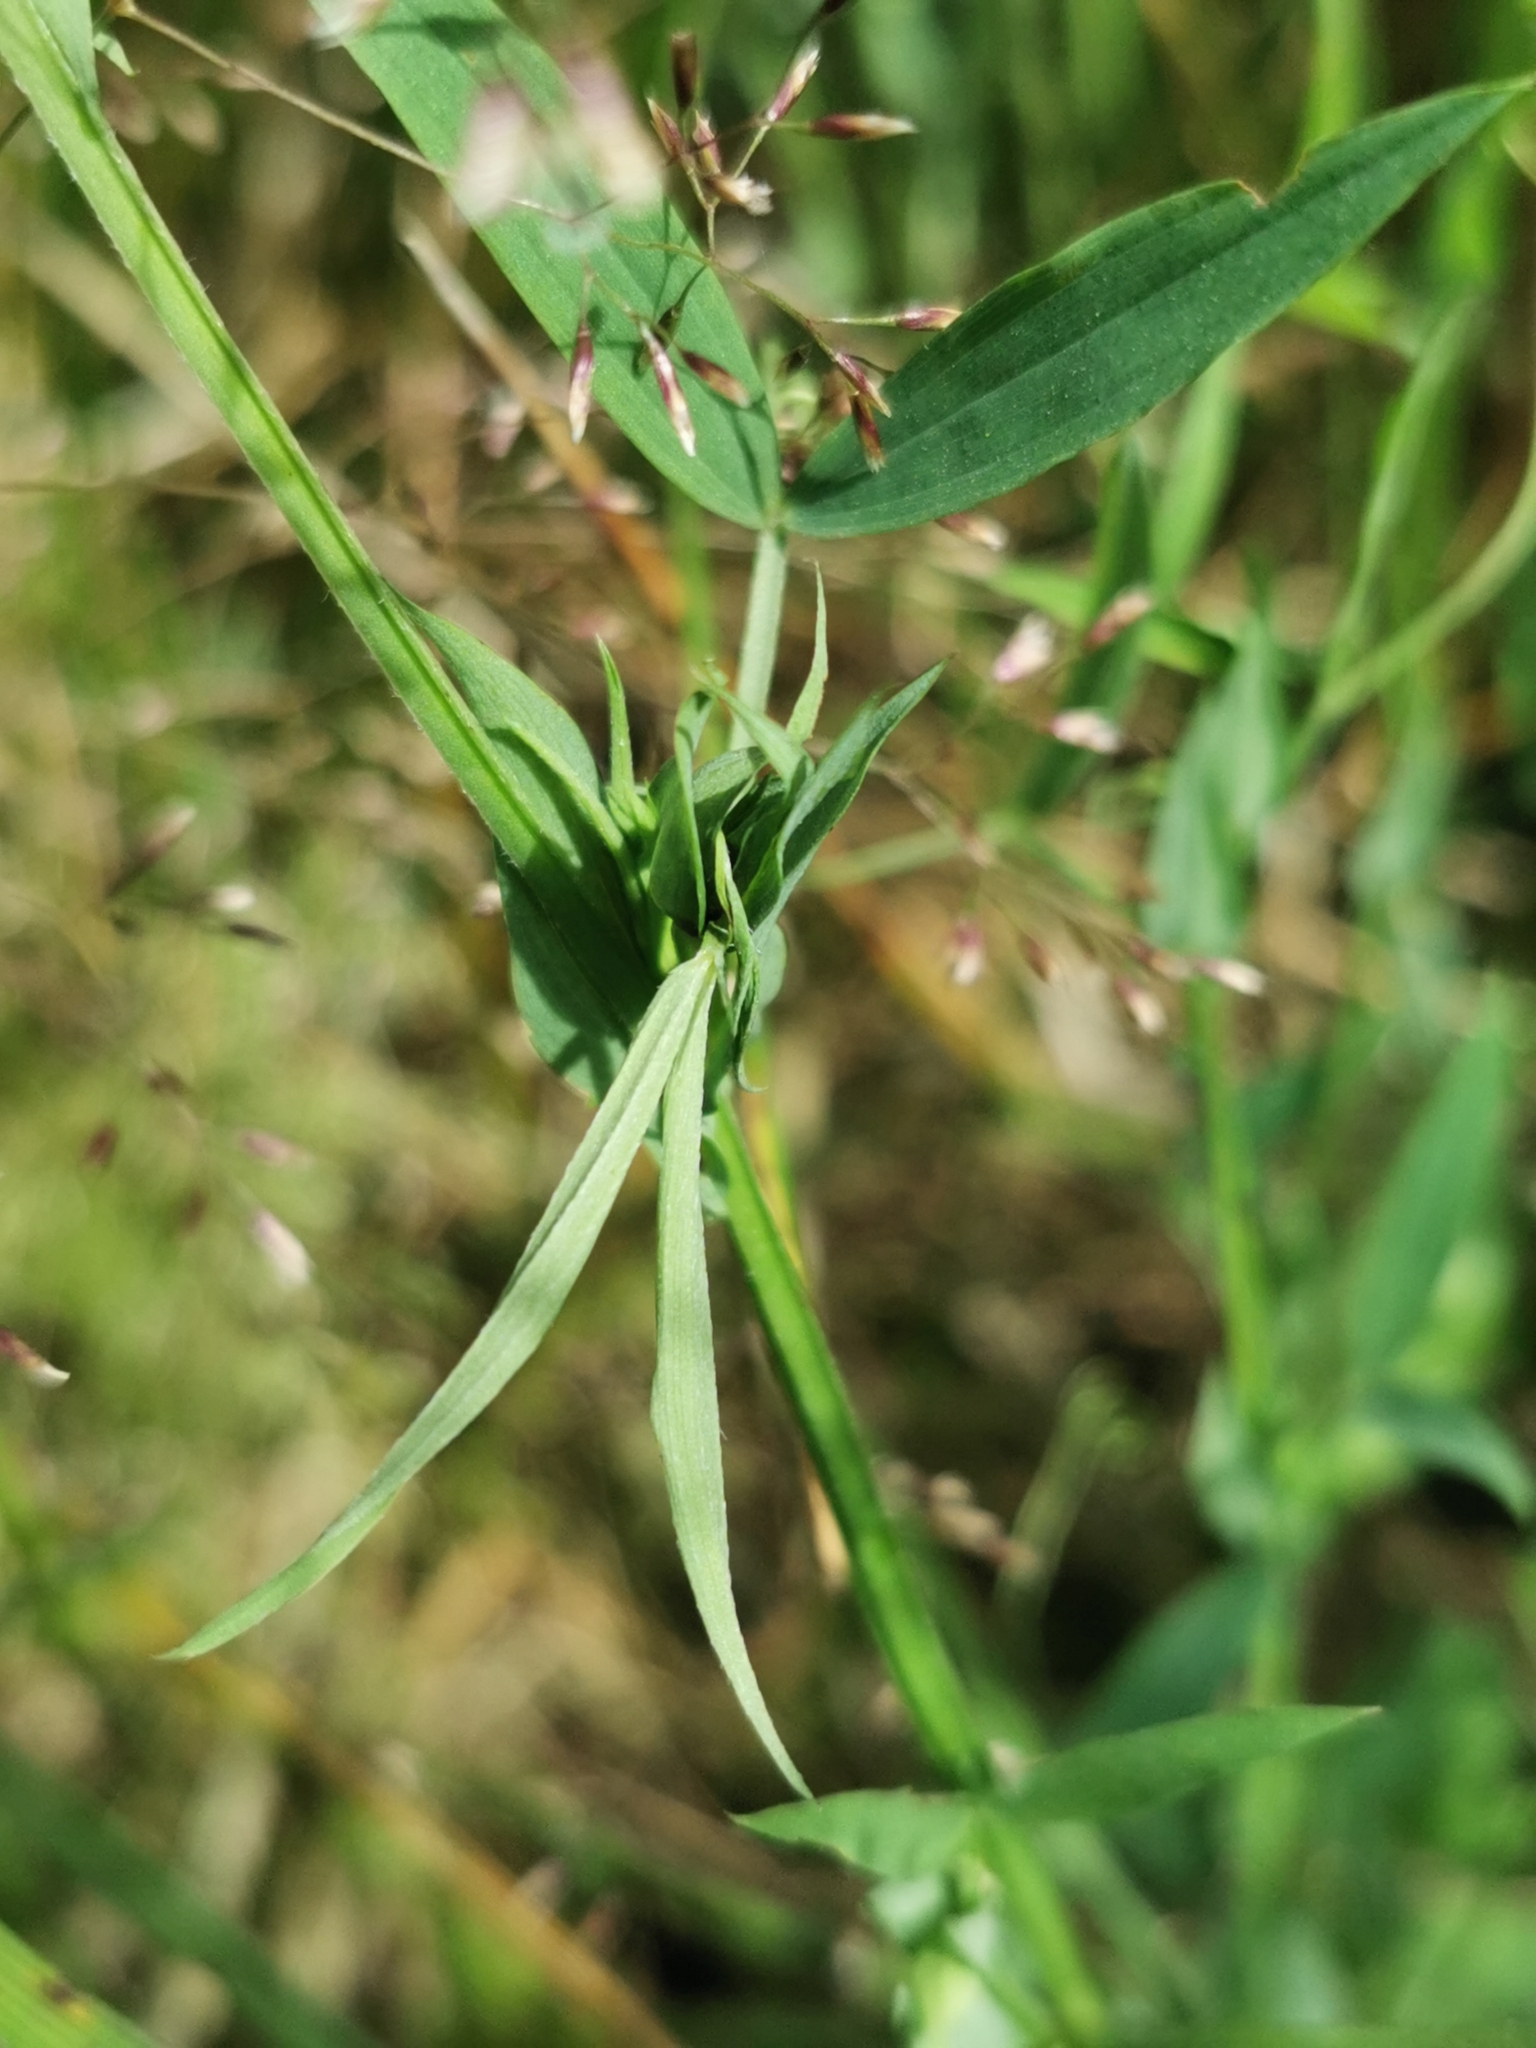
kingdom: Plantae
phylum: Tracheophyta
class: Magnoliopsida
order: Fabales
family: Fabaceae
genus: Lathyrus
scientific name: Lathyrus pratensis
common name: Meadow vetchling
